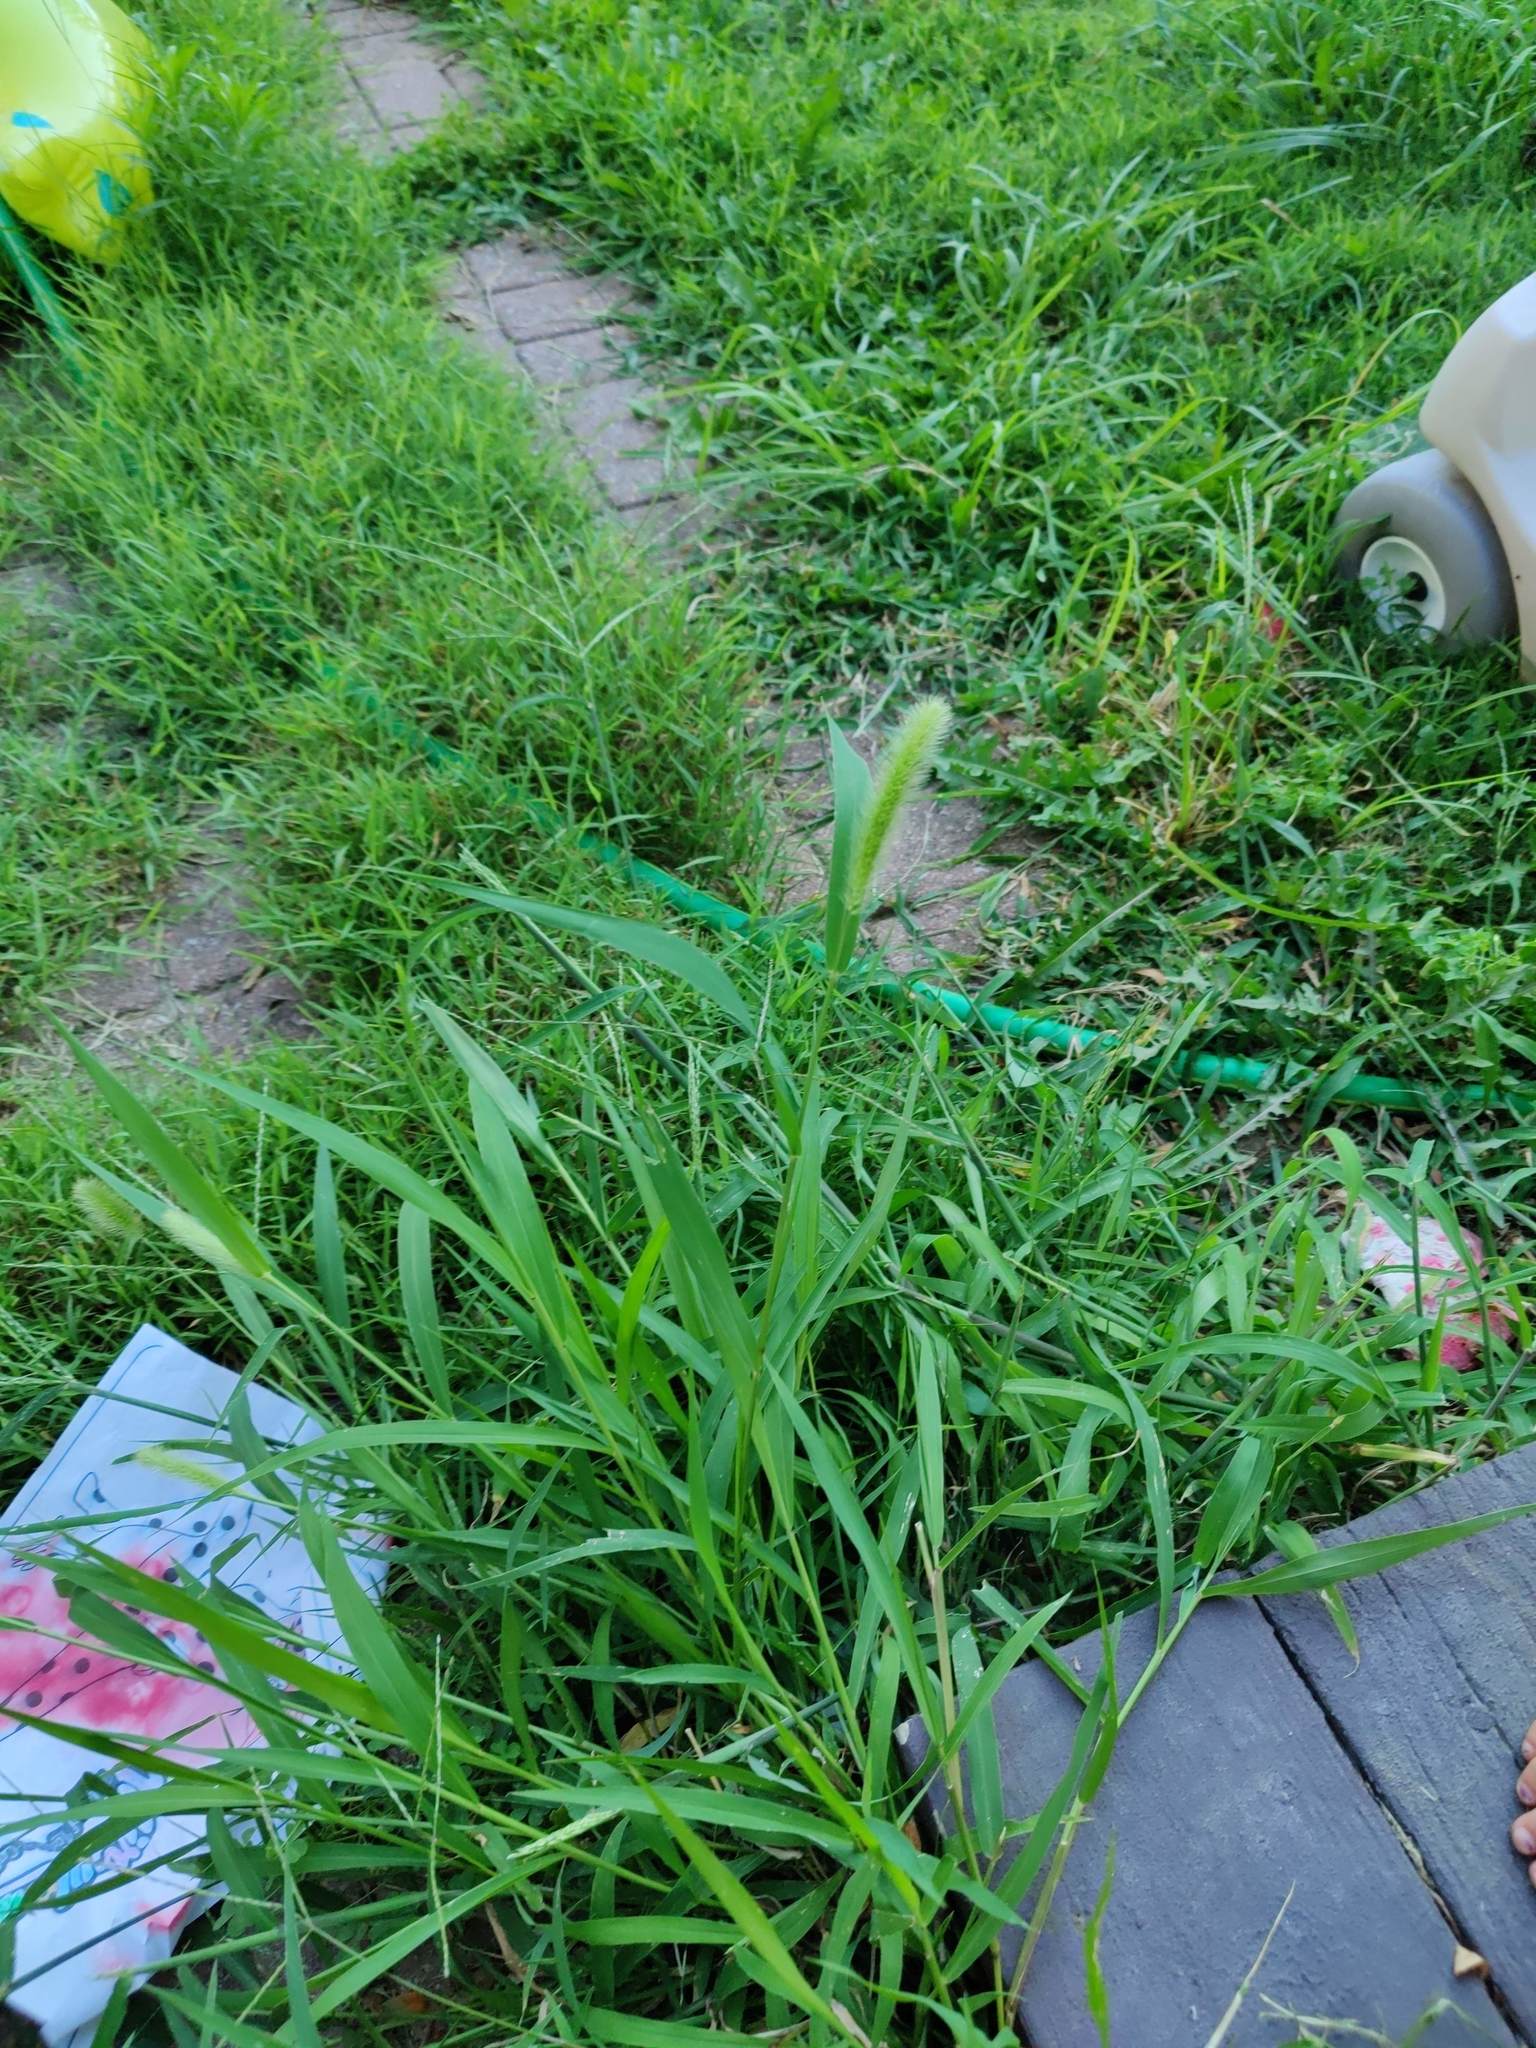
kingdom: Plantae
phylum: Tracheophyta
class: Liliopsida
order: Poales
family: Poaceae
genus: Setaria
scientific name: Setaria viridis
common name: Green bristlegrass
